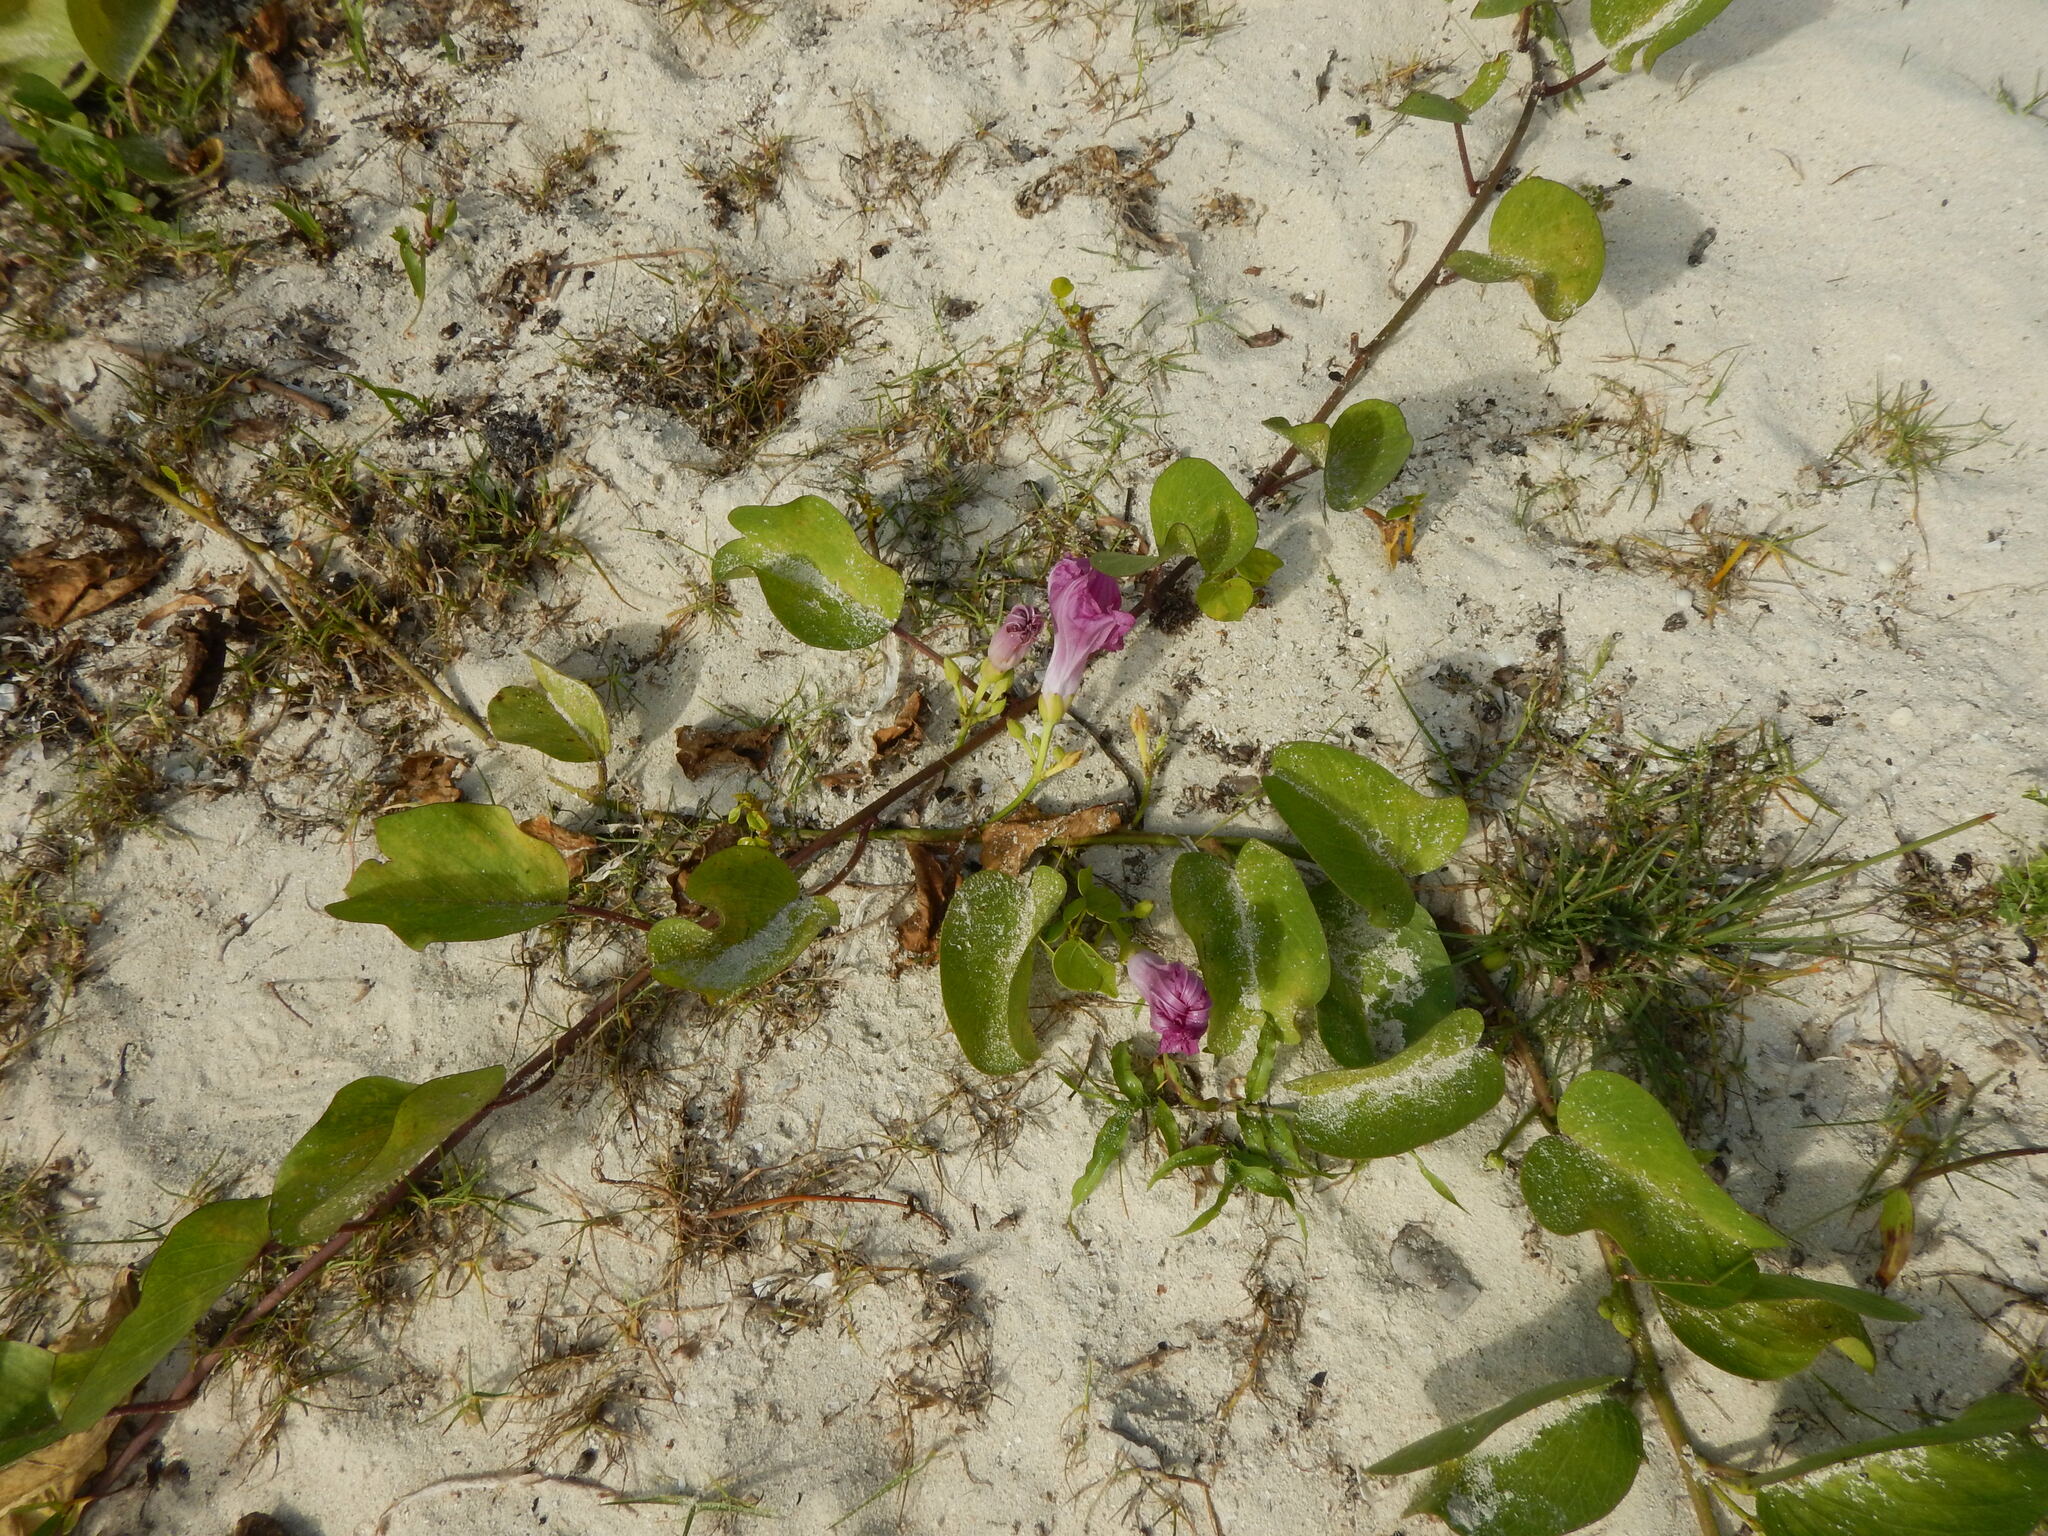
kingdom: Plantae
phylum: Tracheophyta
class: Magnoliopsida
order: Solanales
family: Convolvulaceae
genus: Ipomoea
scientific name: Ipomoea pes-caprae
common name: Beach morning glory
